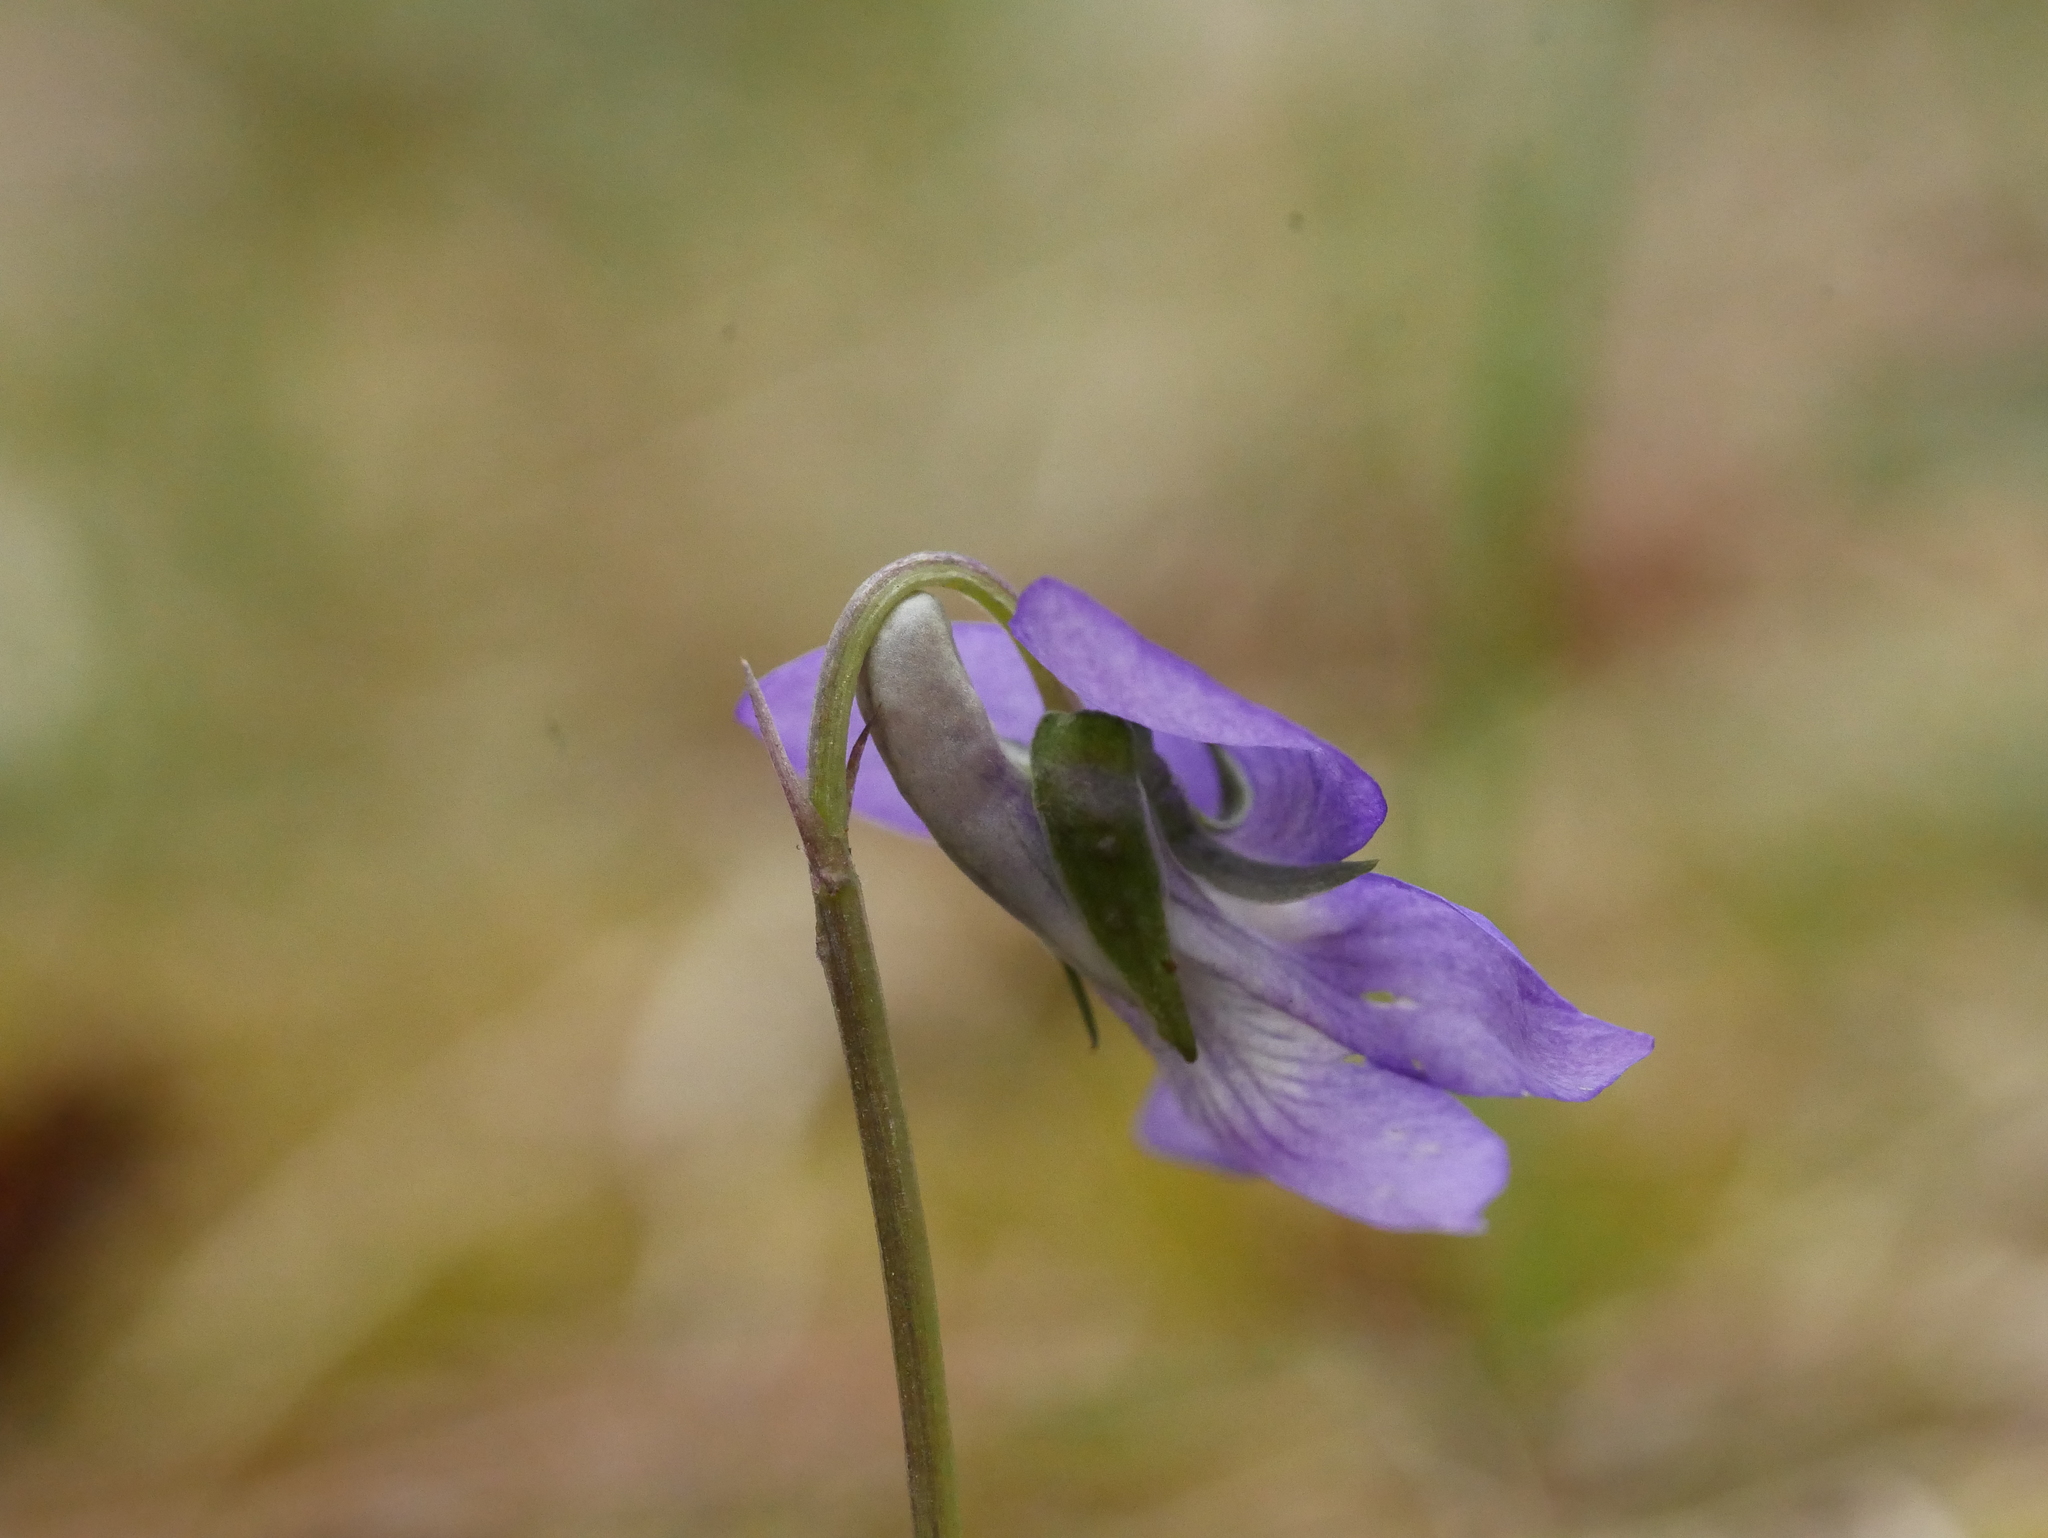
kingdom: Plantae
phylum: Tracheophyta
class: Magnoliopsida
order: Malpighiales
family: Violaceae
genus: Viola
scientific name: Viola riviniana
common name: Common dog-violet
